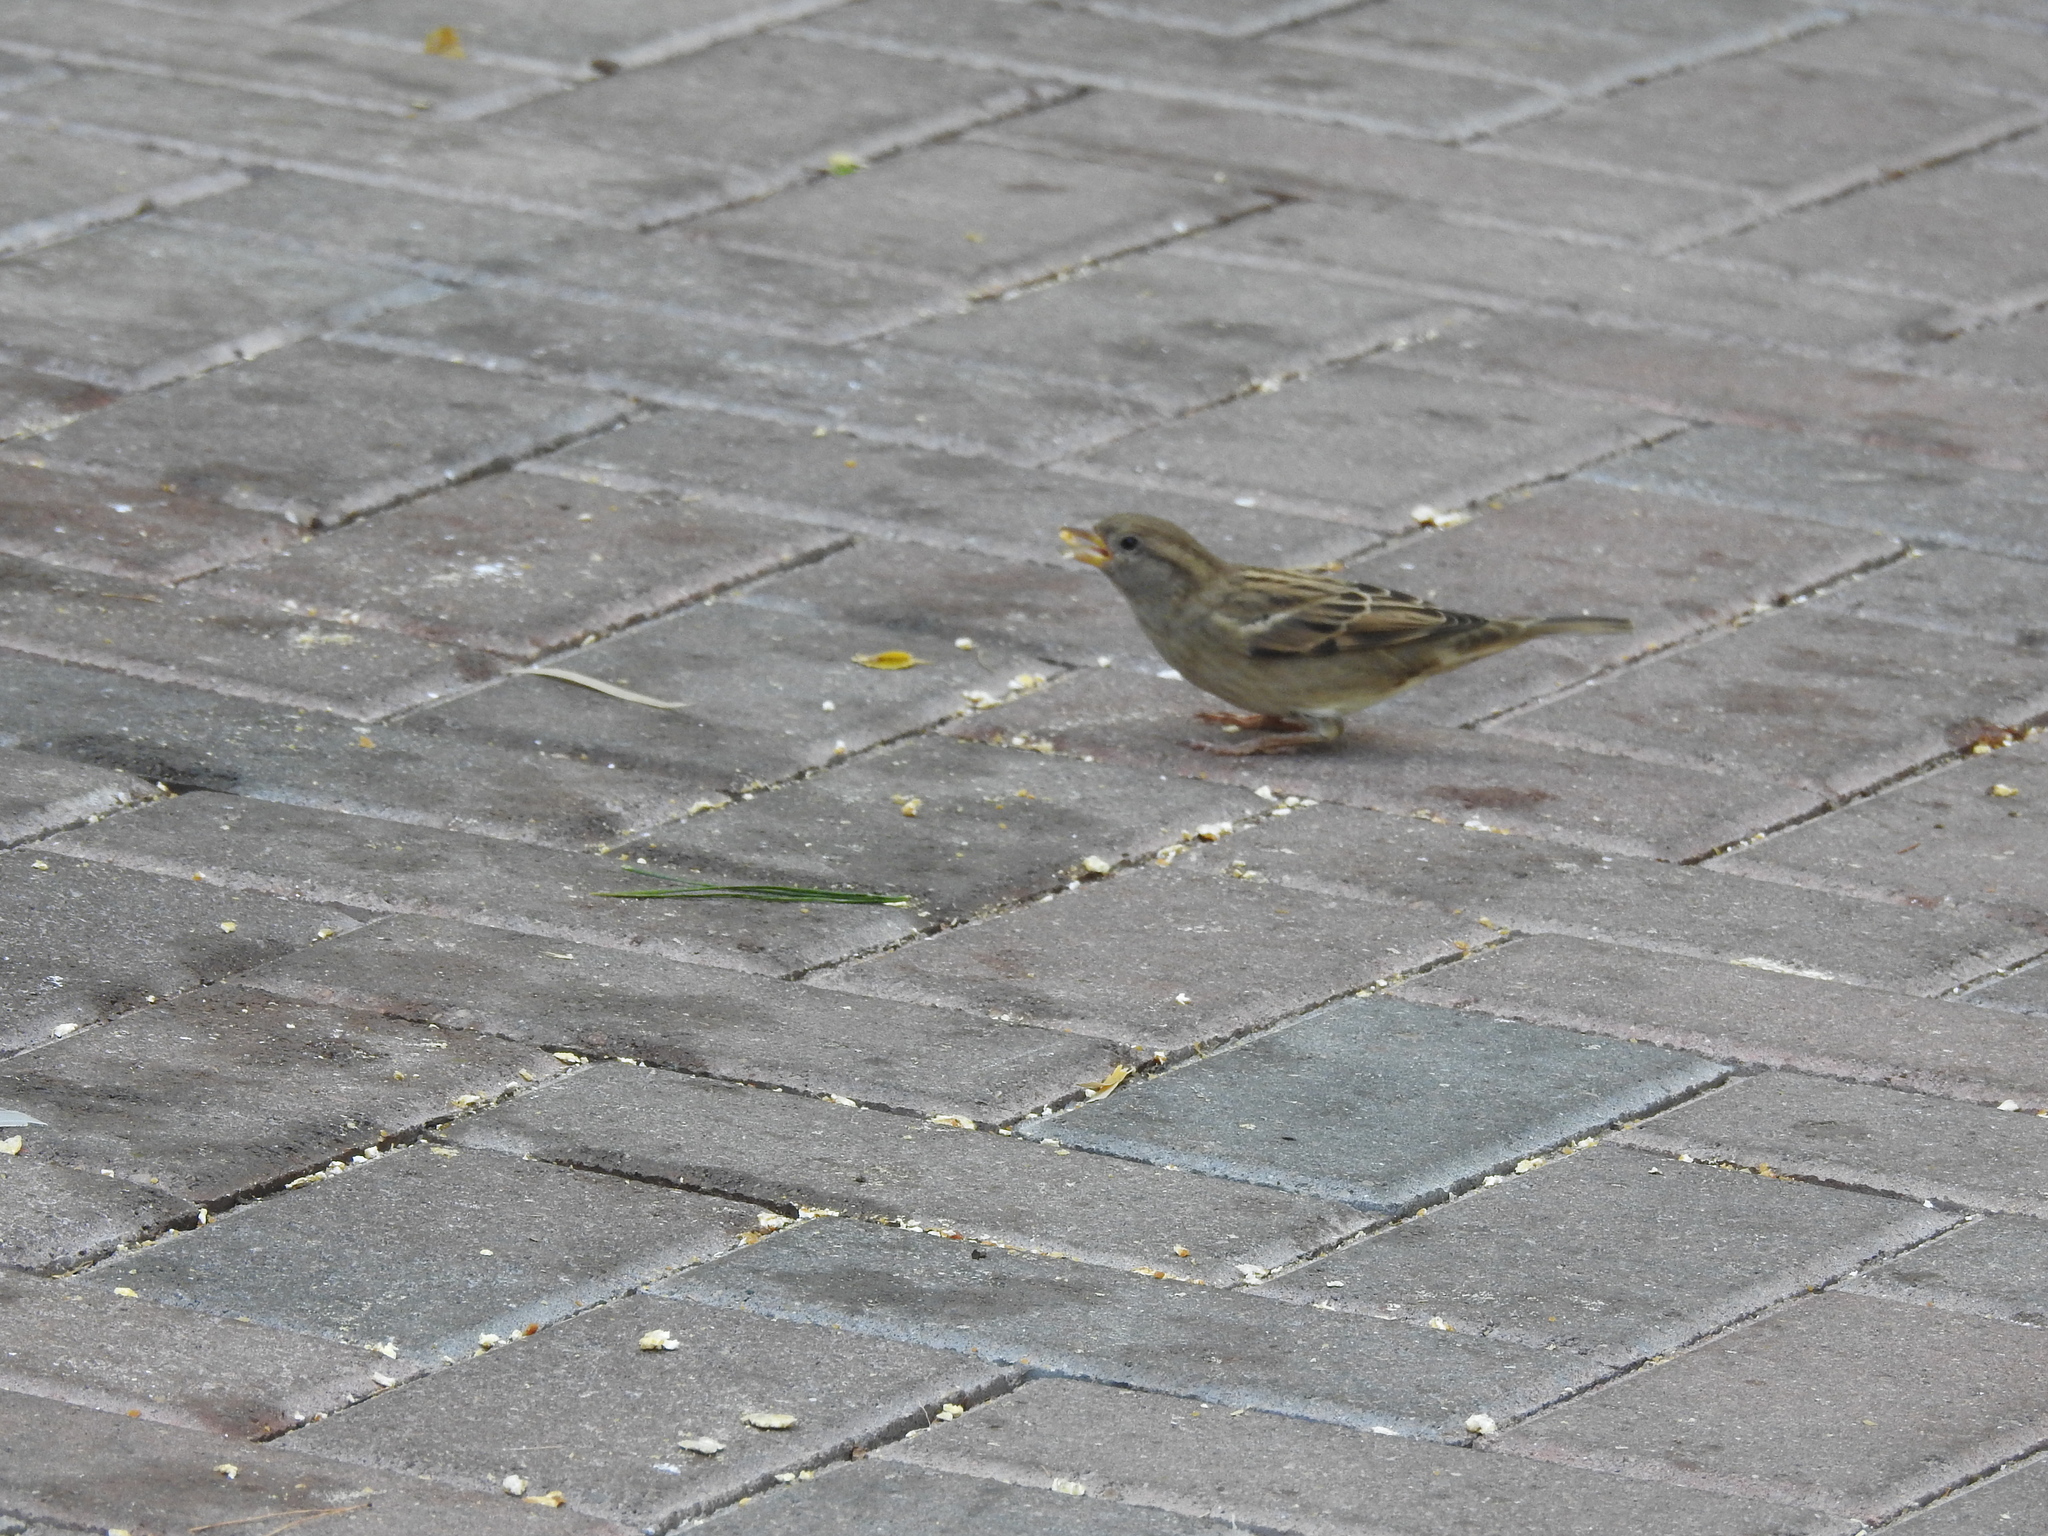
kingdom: Animalia
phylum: Chordata
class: Aves
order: Passeriformes
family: Passeridae
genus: Passer
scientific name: Passer domesticus
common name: House sparrow
